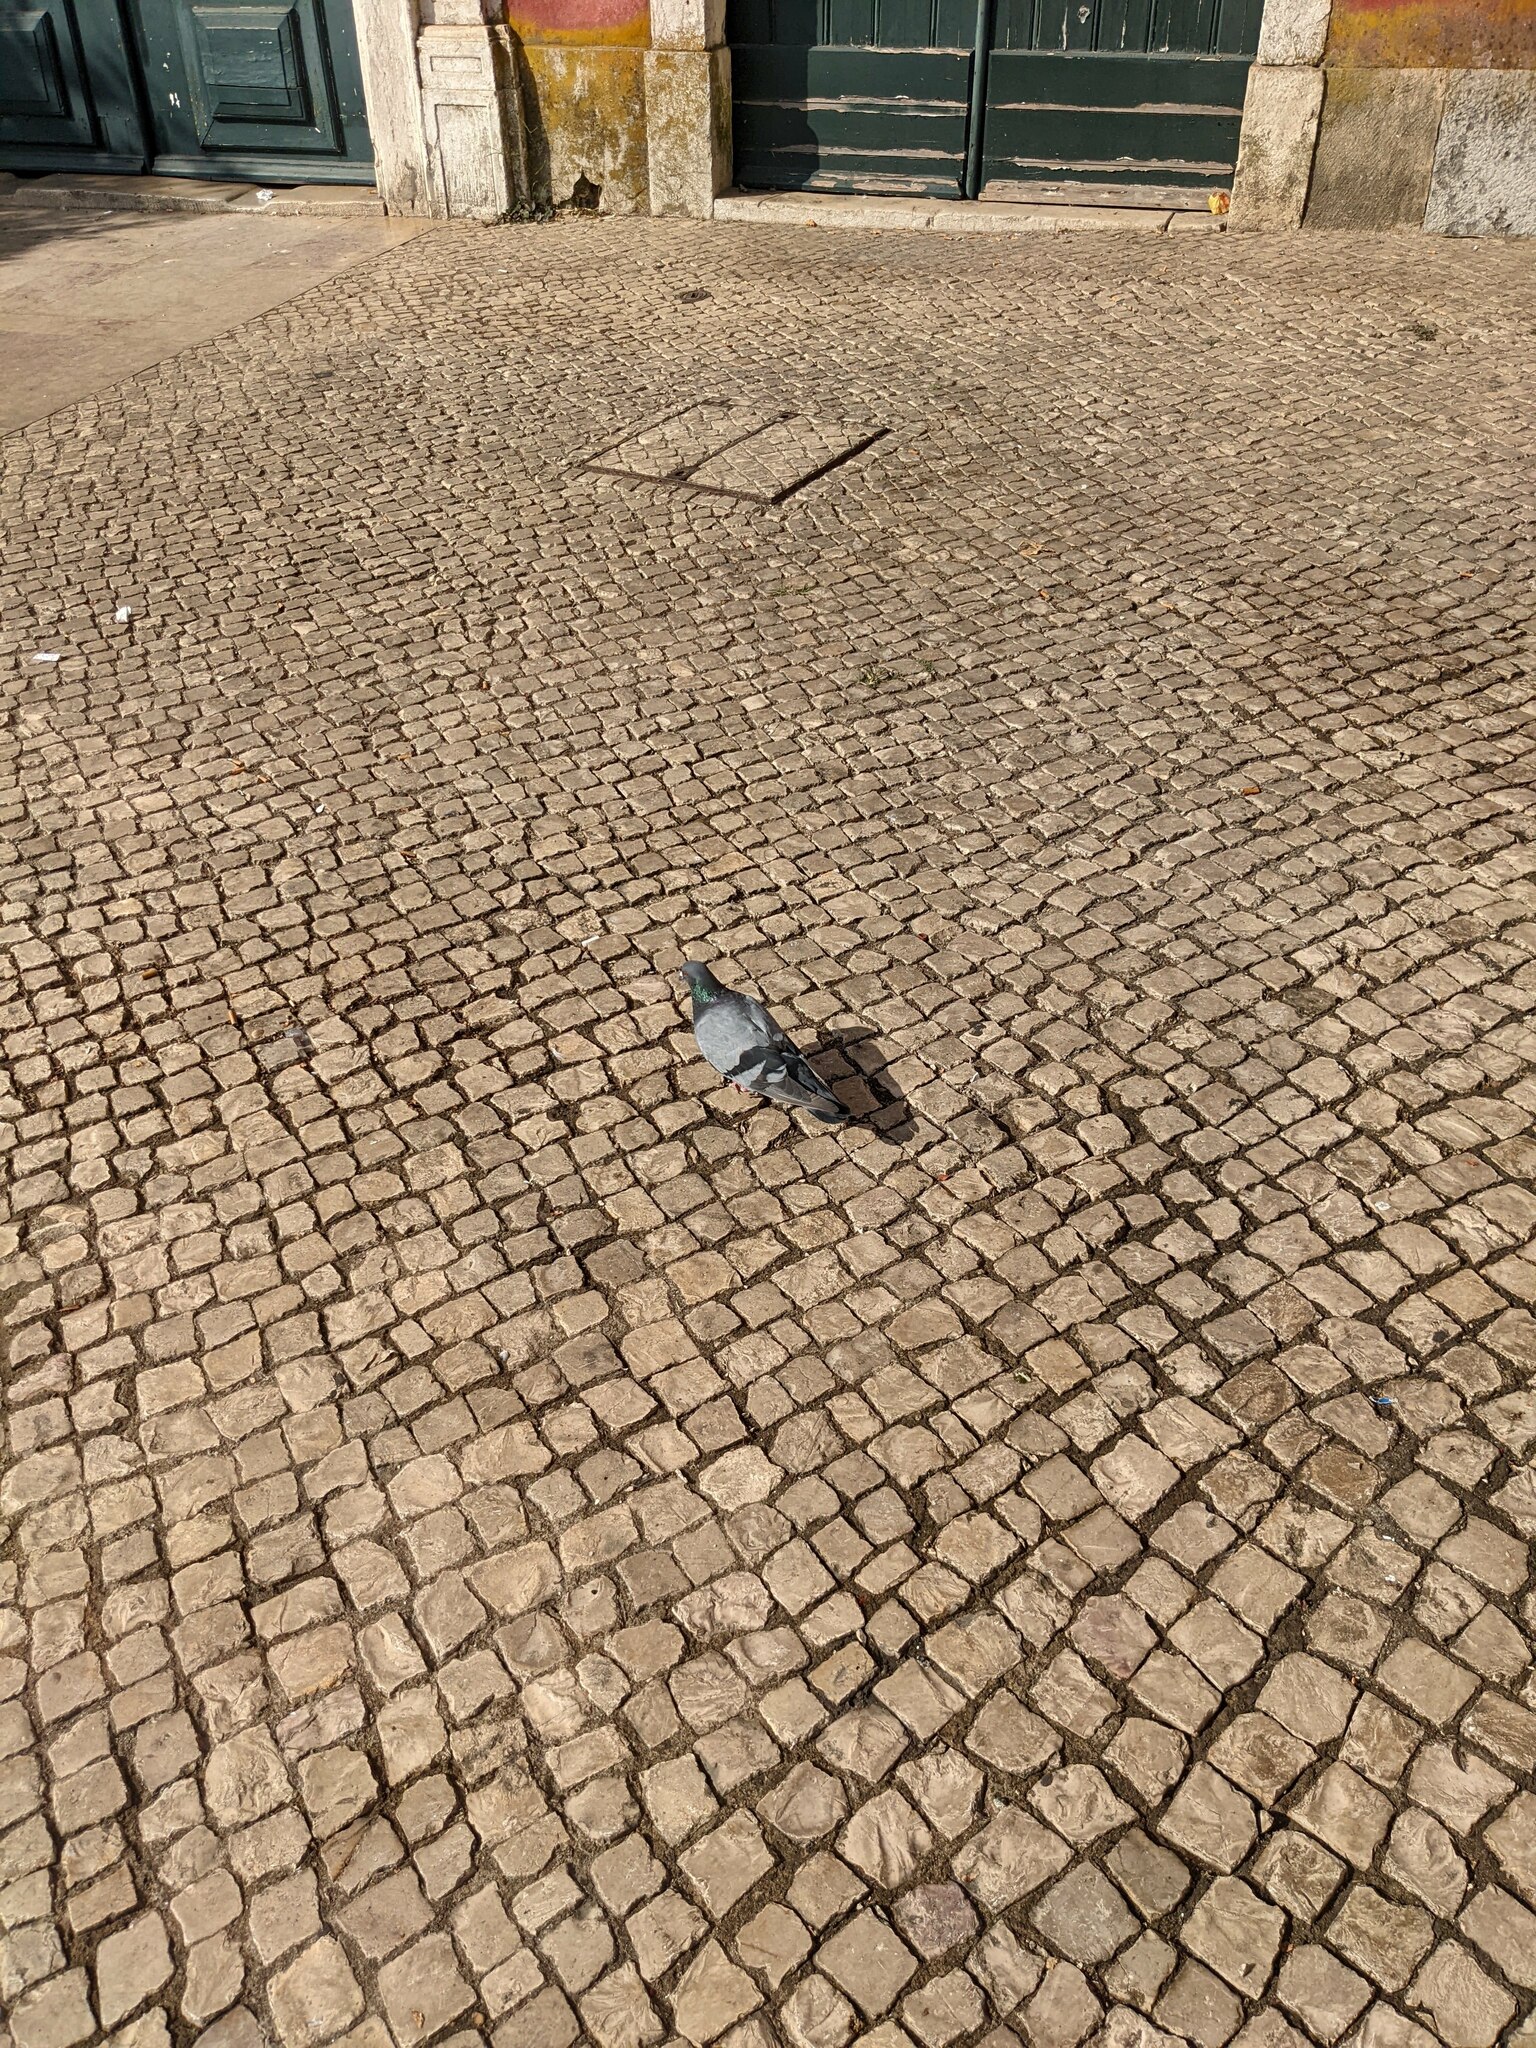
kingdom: Animalia
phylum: Chordata
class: Aves
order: Columbiformes
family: Columbidae
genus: Columba
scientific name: Columba livia
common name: Rock pigeon
